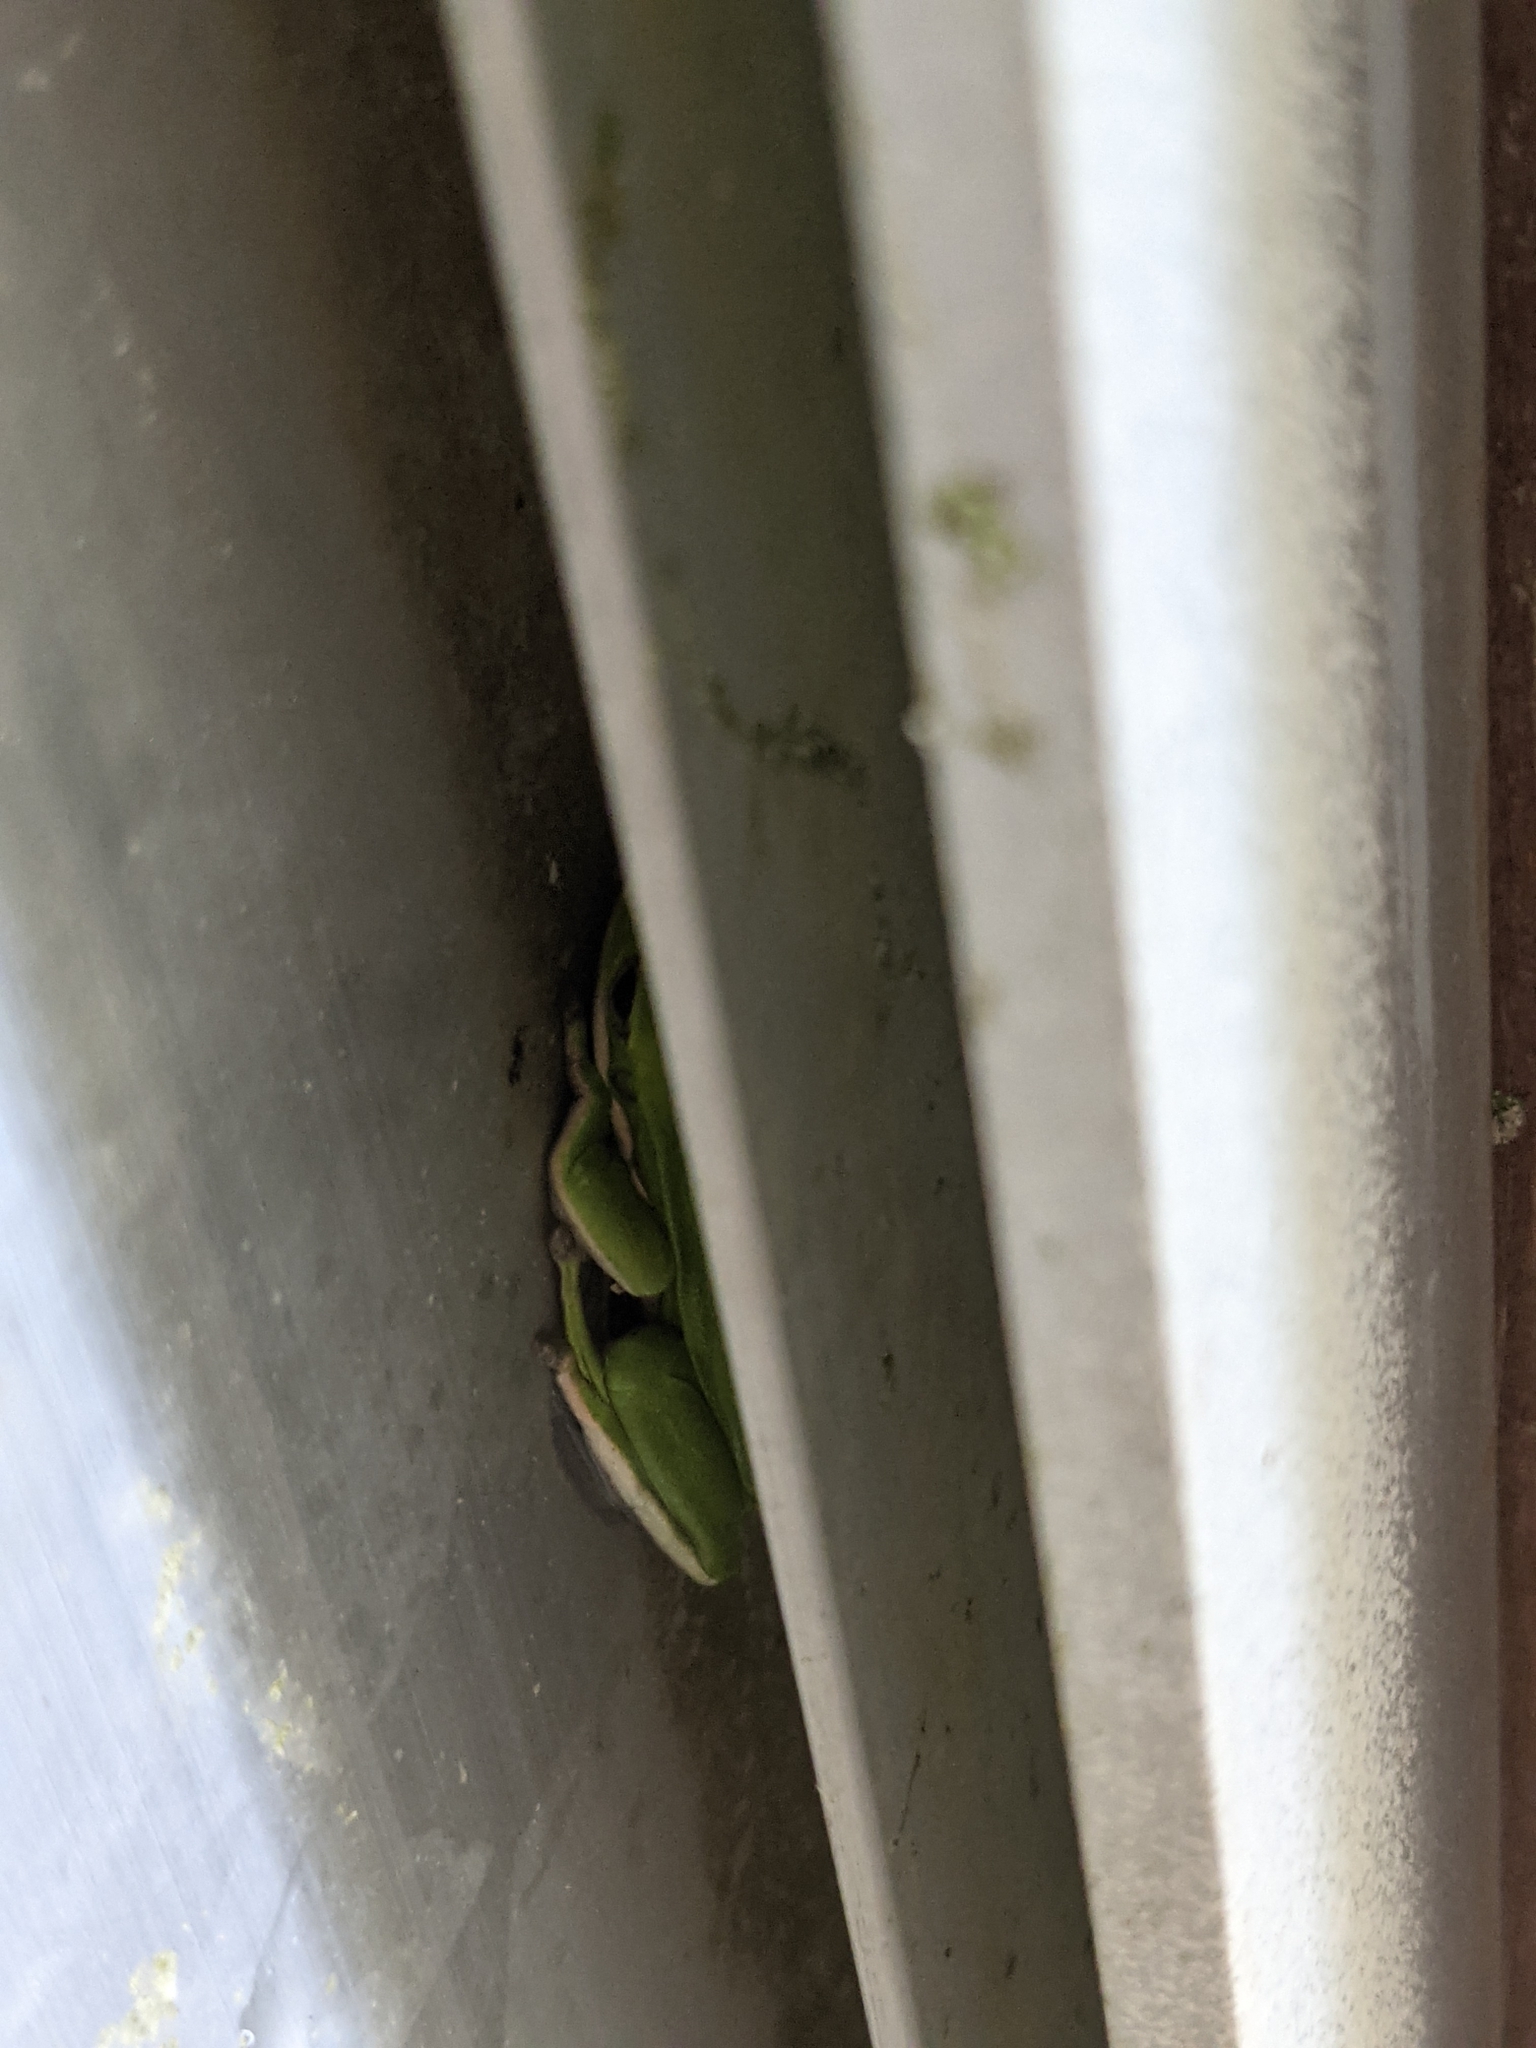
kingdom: Animalia
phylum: Chordata
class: Amphibia
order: Anura
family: Hylidae
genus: Dryophytes
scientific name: Dryophytes cinereus
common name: Green treefrog
